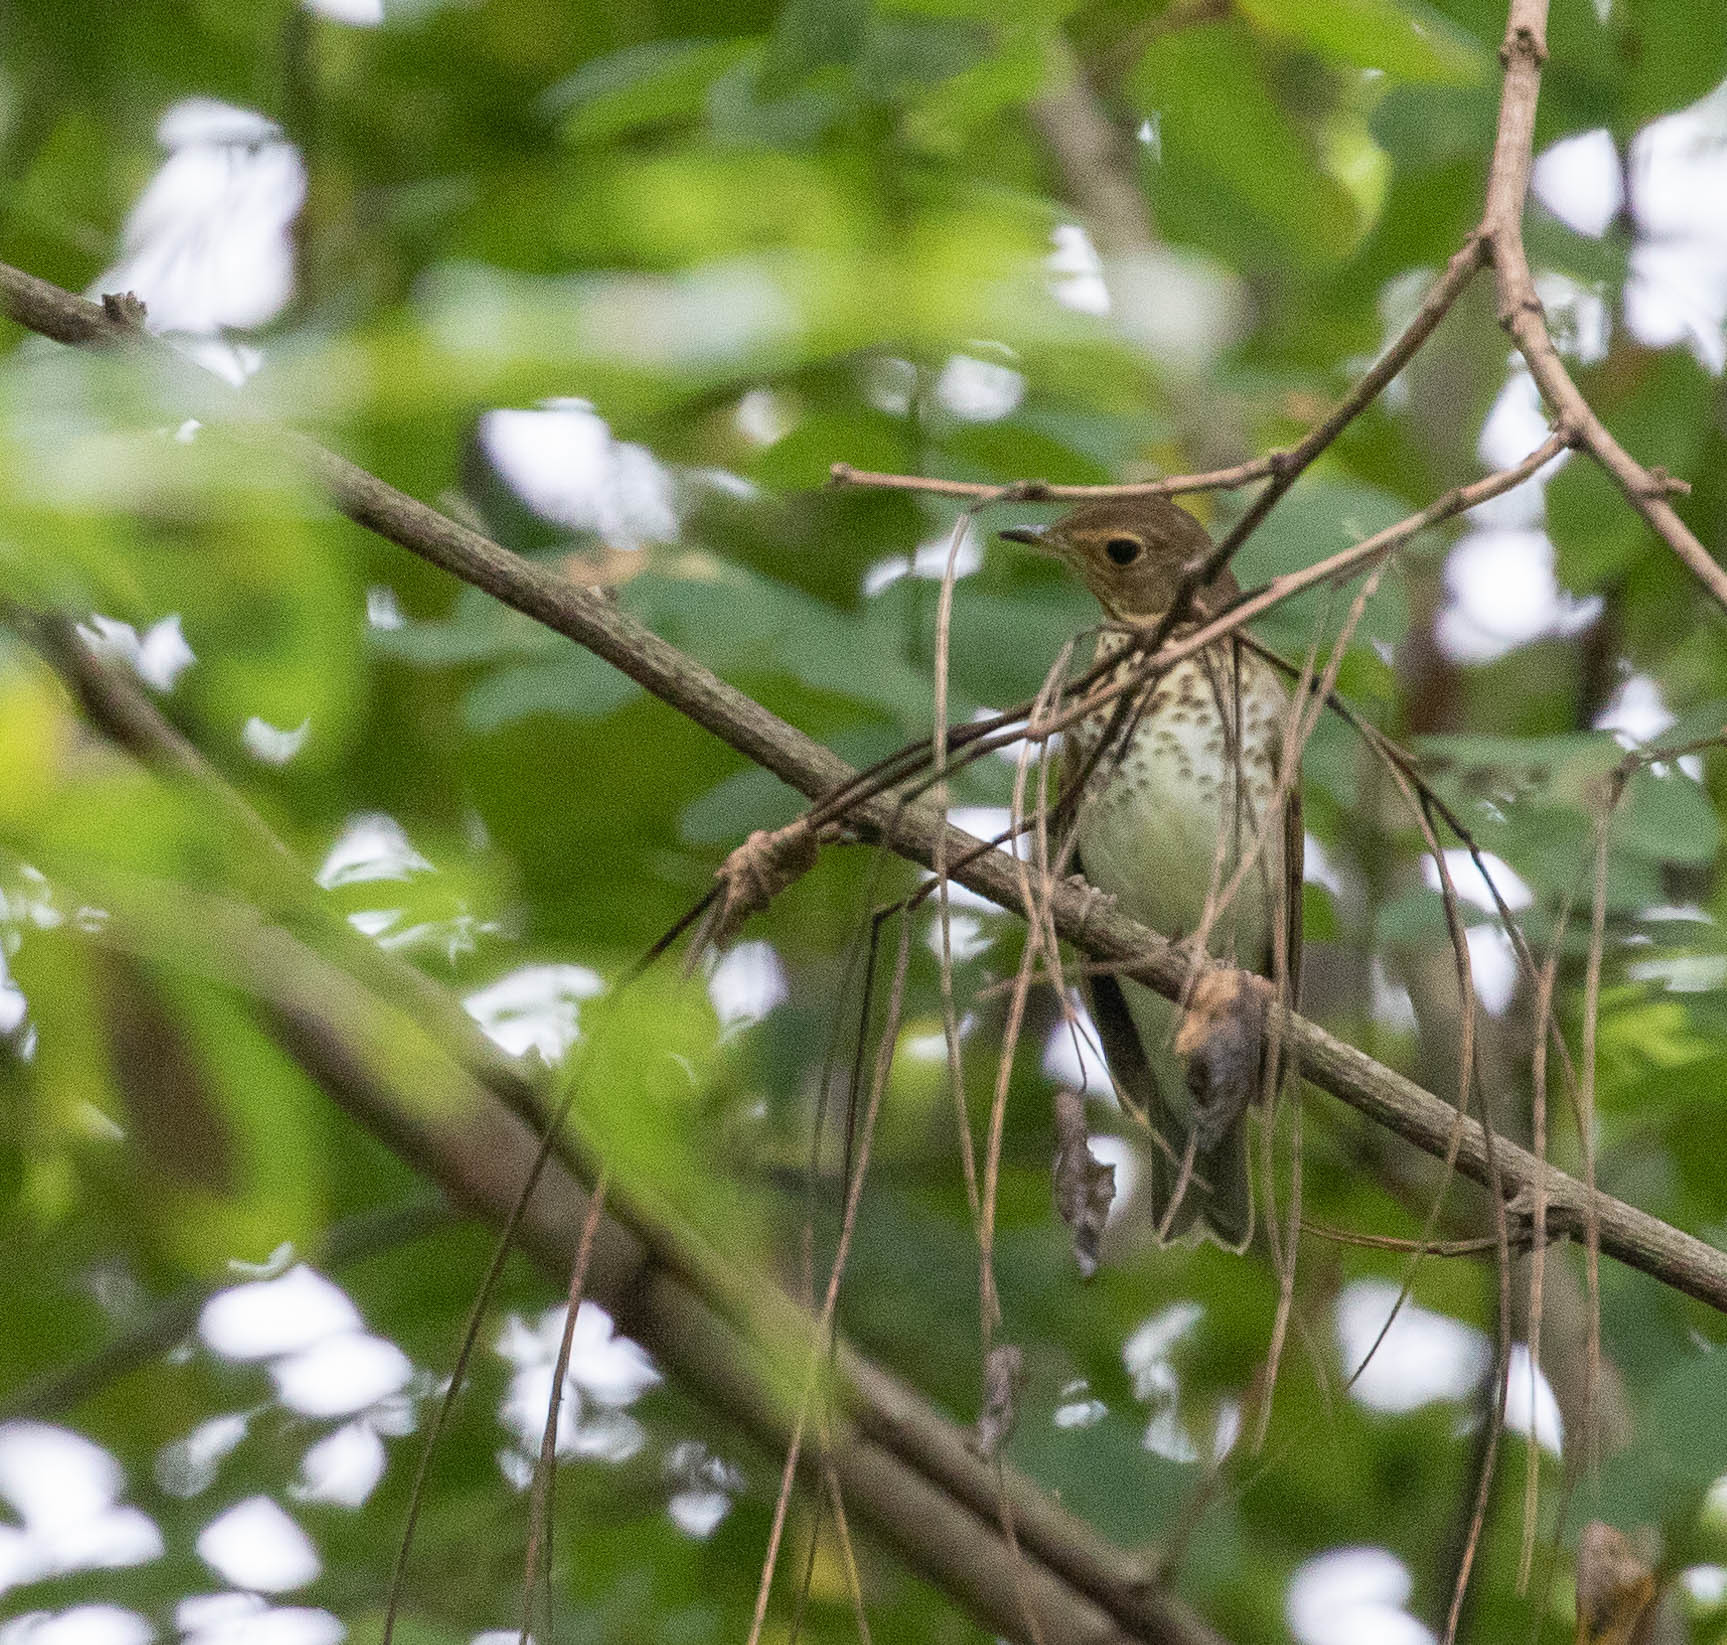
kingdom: Animalia
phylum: Chordata
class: Aves
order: Passeriformes
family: Turdidae
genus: Catharus
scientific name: Catharus ustulatus
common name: Swainson's thrush
